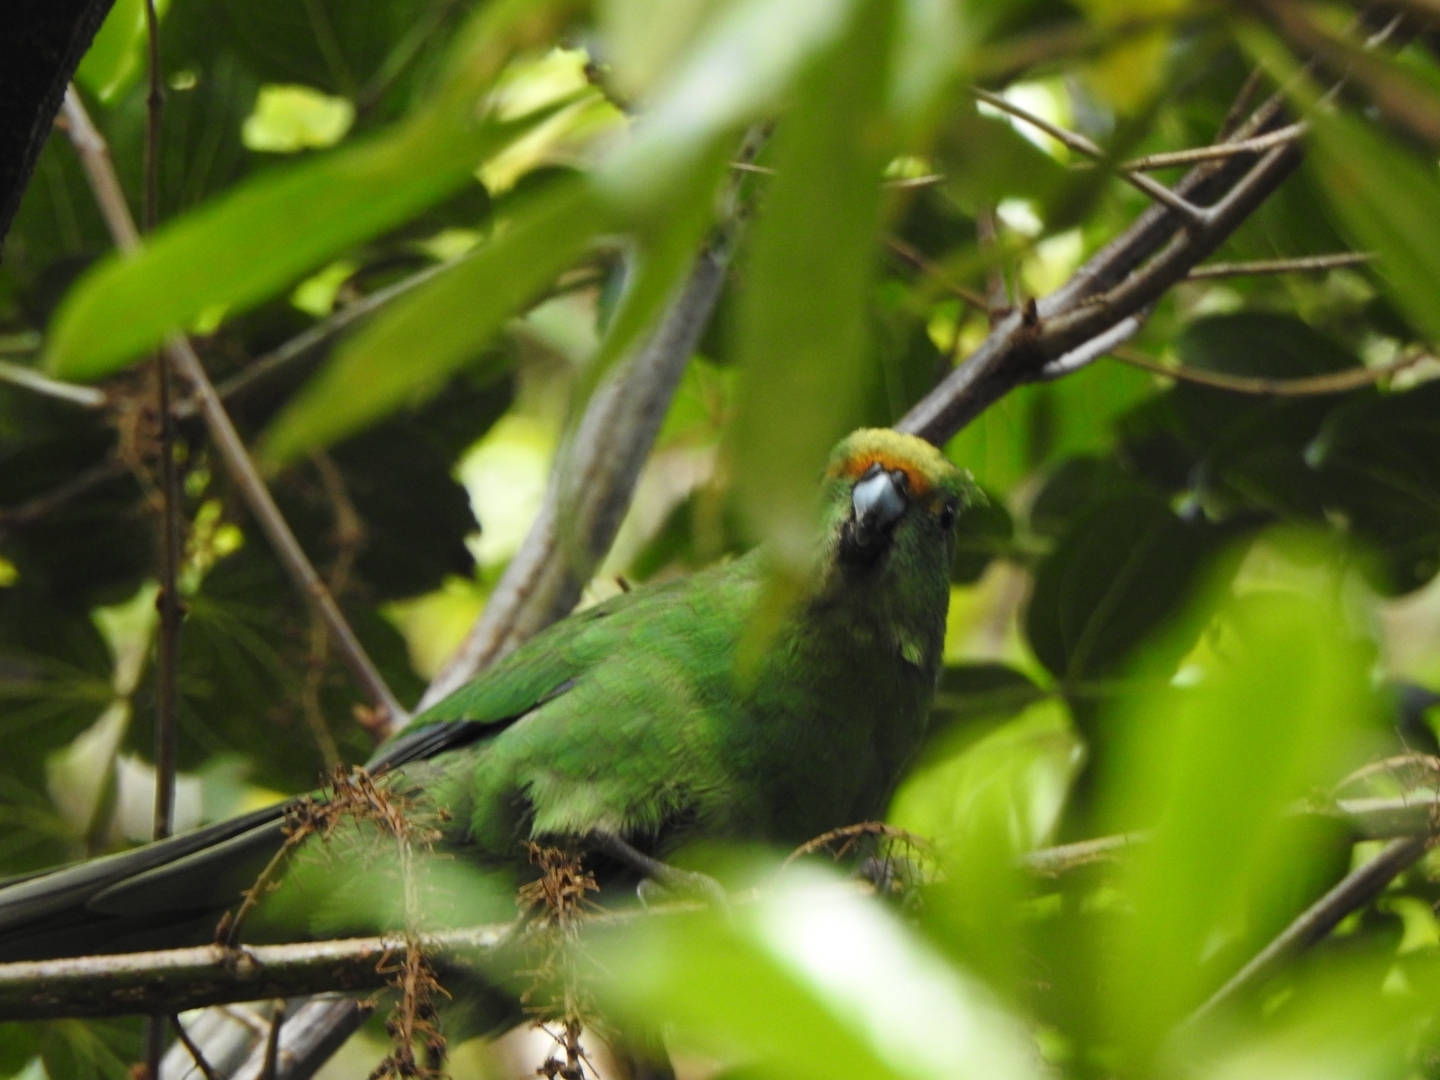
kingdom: Animalia
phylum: Chordata
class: Aves
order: Psittaciformes
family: Psittacidae
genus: Cyanoramphus
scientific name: Cyanoramphus malherbi
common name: Malherbe's parakeet
